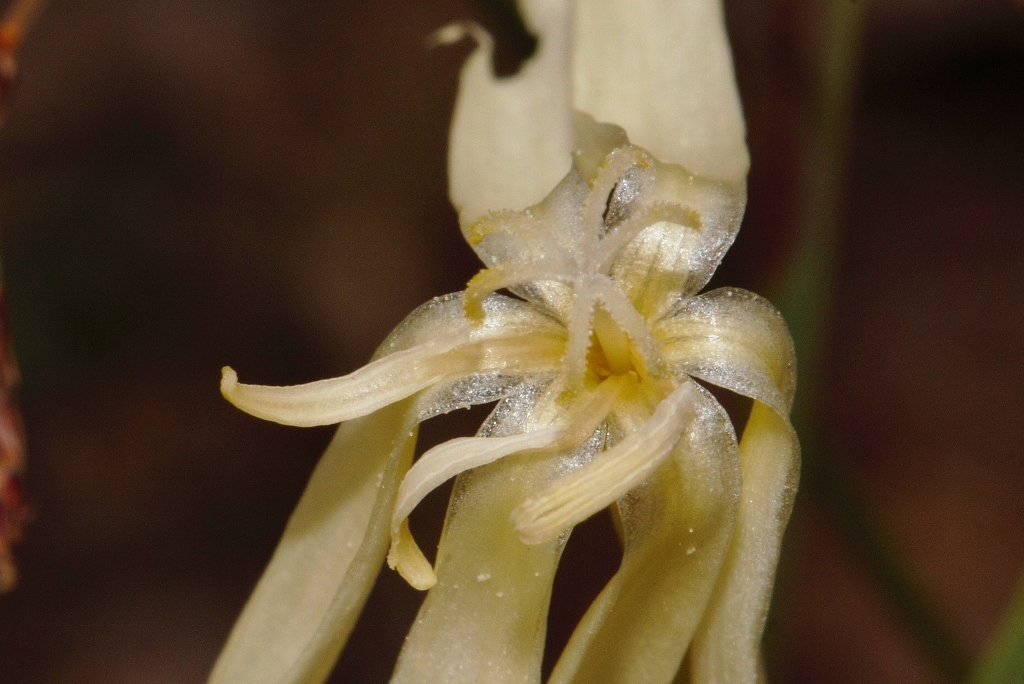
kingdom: Plantae
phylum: Tracheophyta
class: Liliopsida
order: Asparagales
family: Iridaceae
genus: Lapeirousia
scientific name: Lapeirousia odoratissima
